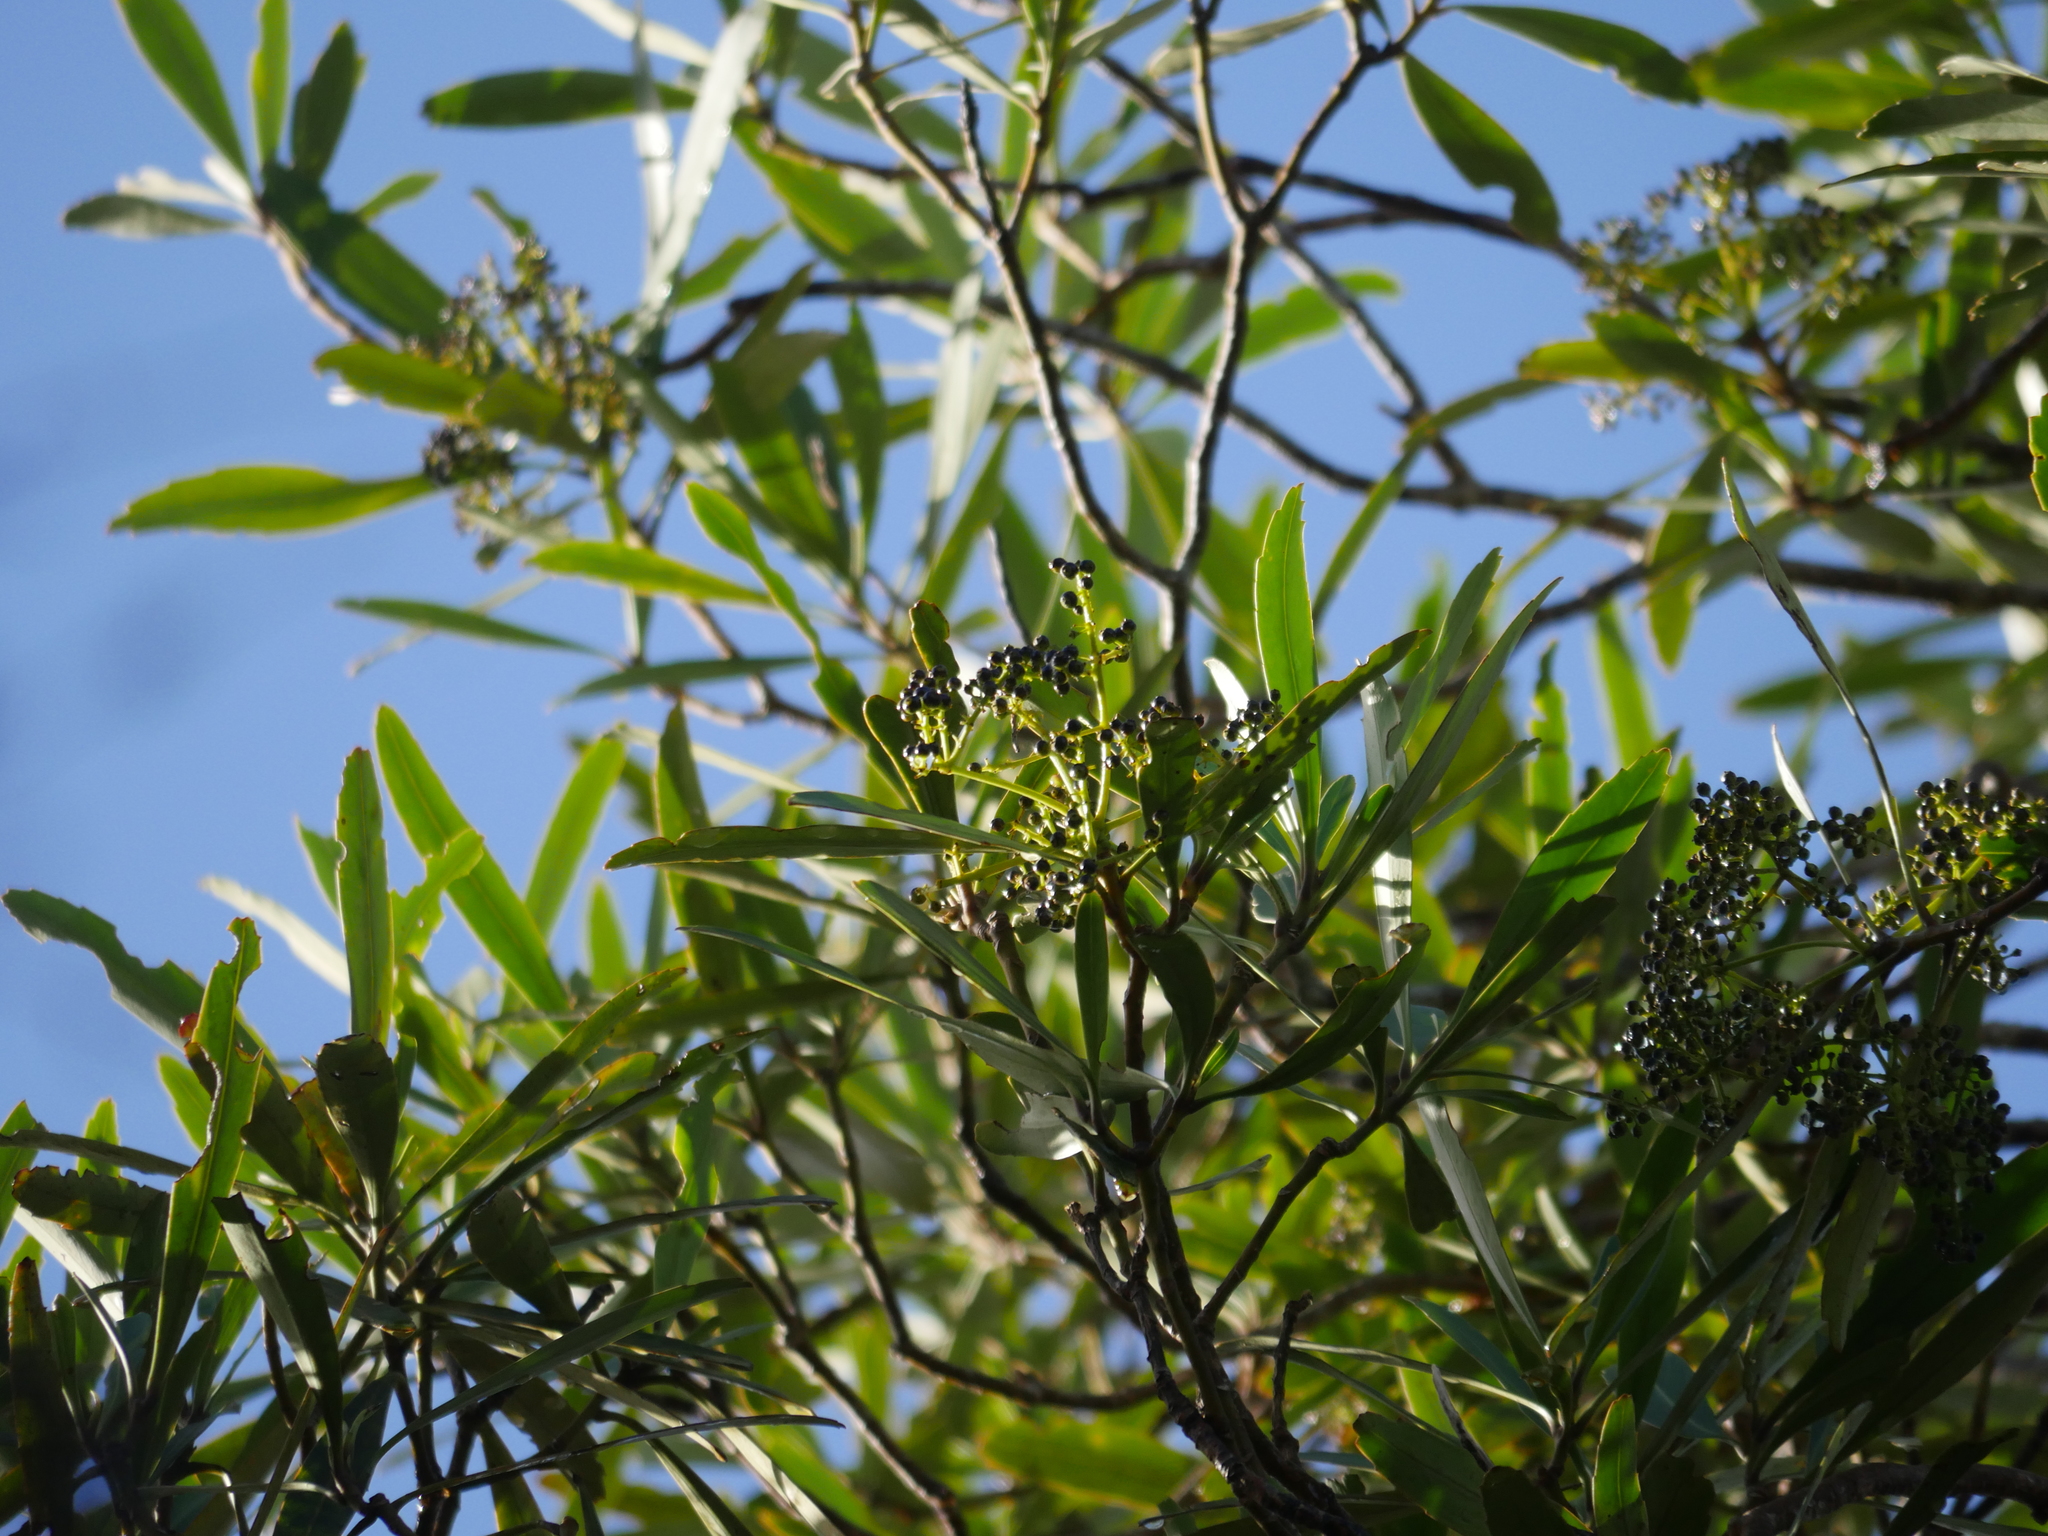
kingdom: Plantae
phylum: Tracheophyta
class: Magnoliopsida
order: Apiales
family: Araliaceae
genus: Pseudopanax
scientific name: Pseudopanax crassifolius
